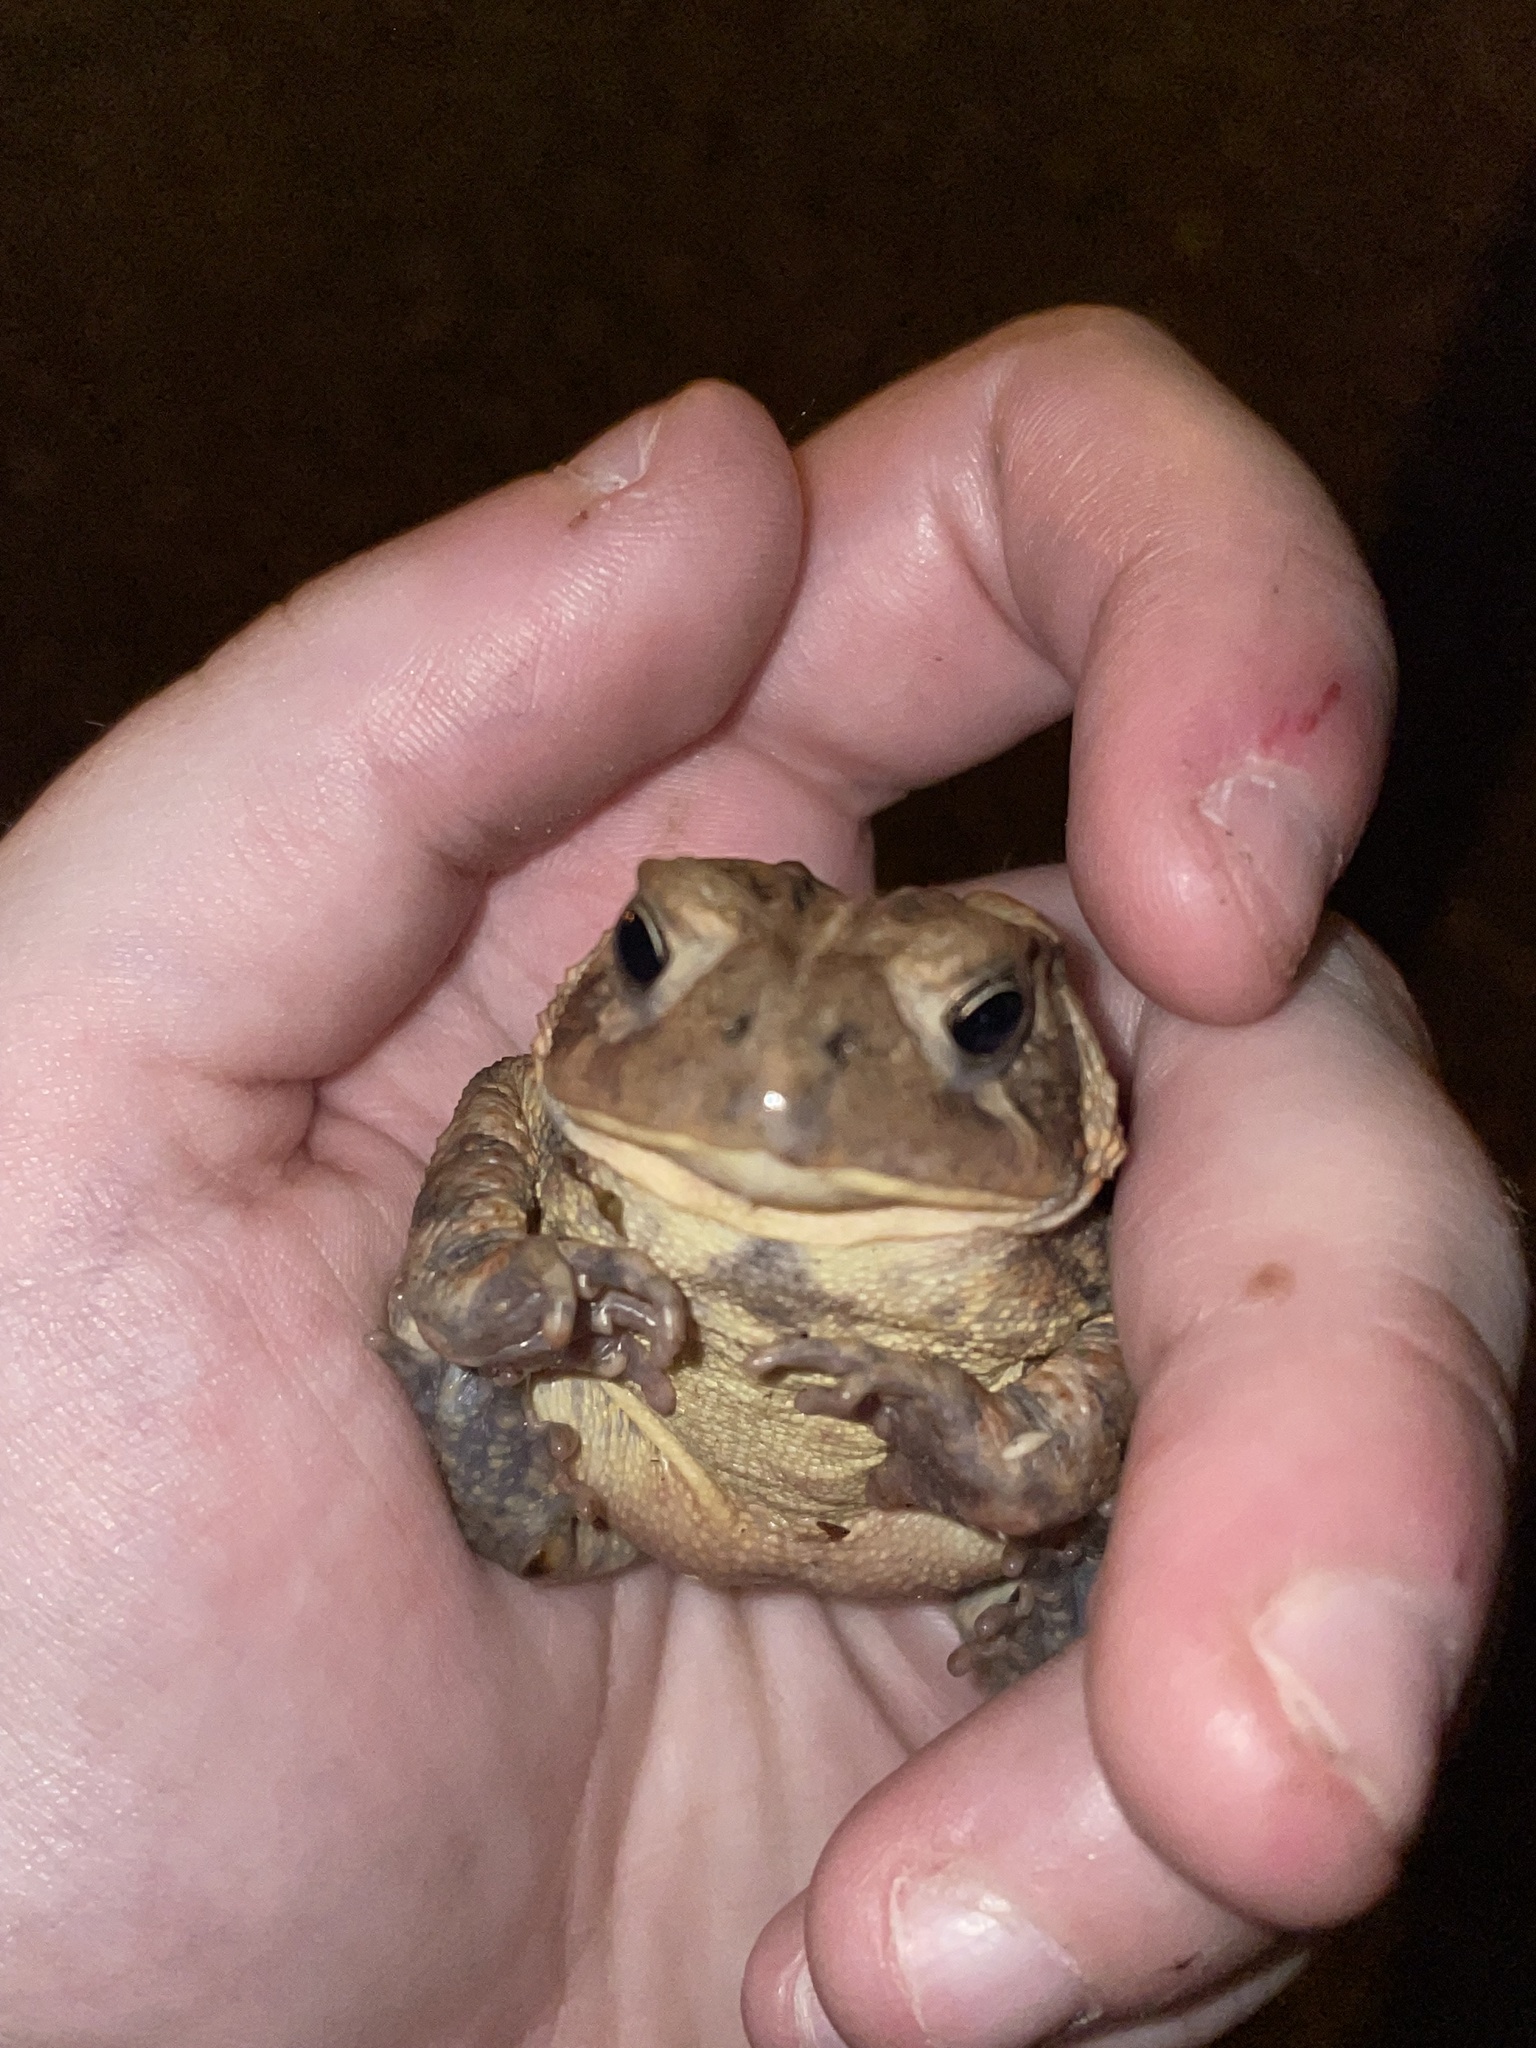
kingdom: Animalia
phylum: Chordata
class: Amphibia
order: Anura
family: Bufonidae
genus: Anaxyrus
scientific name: Anaxyrus fowleri
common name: Fowler's toad
